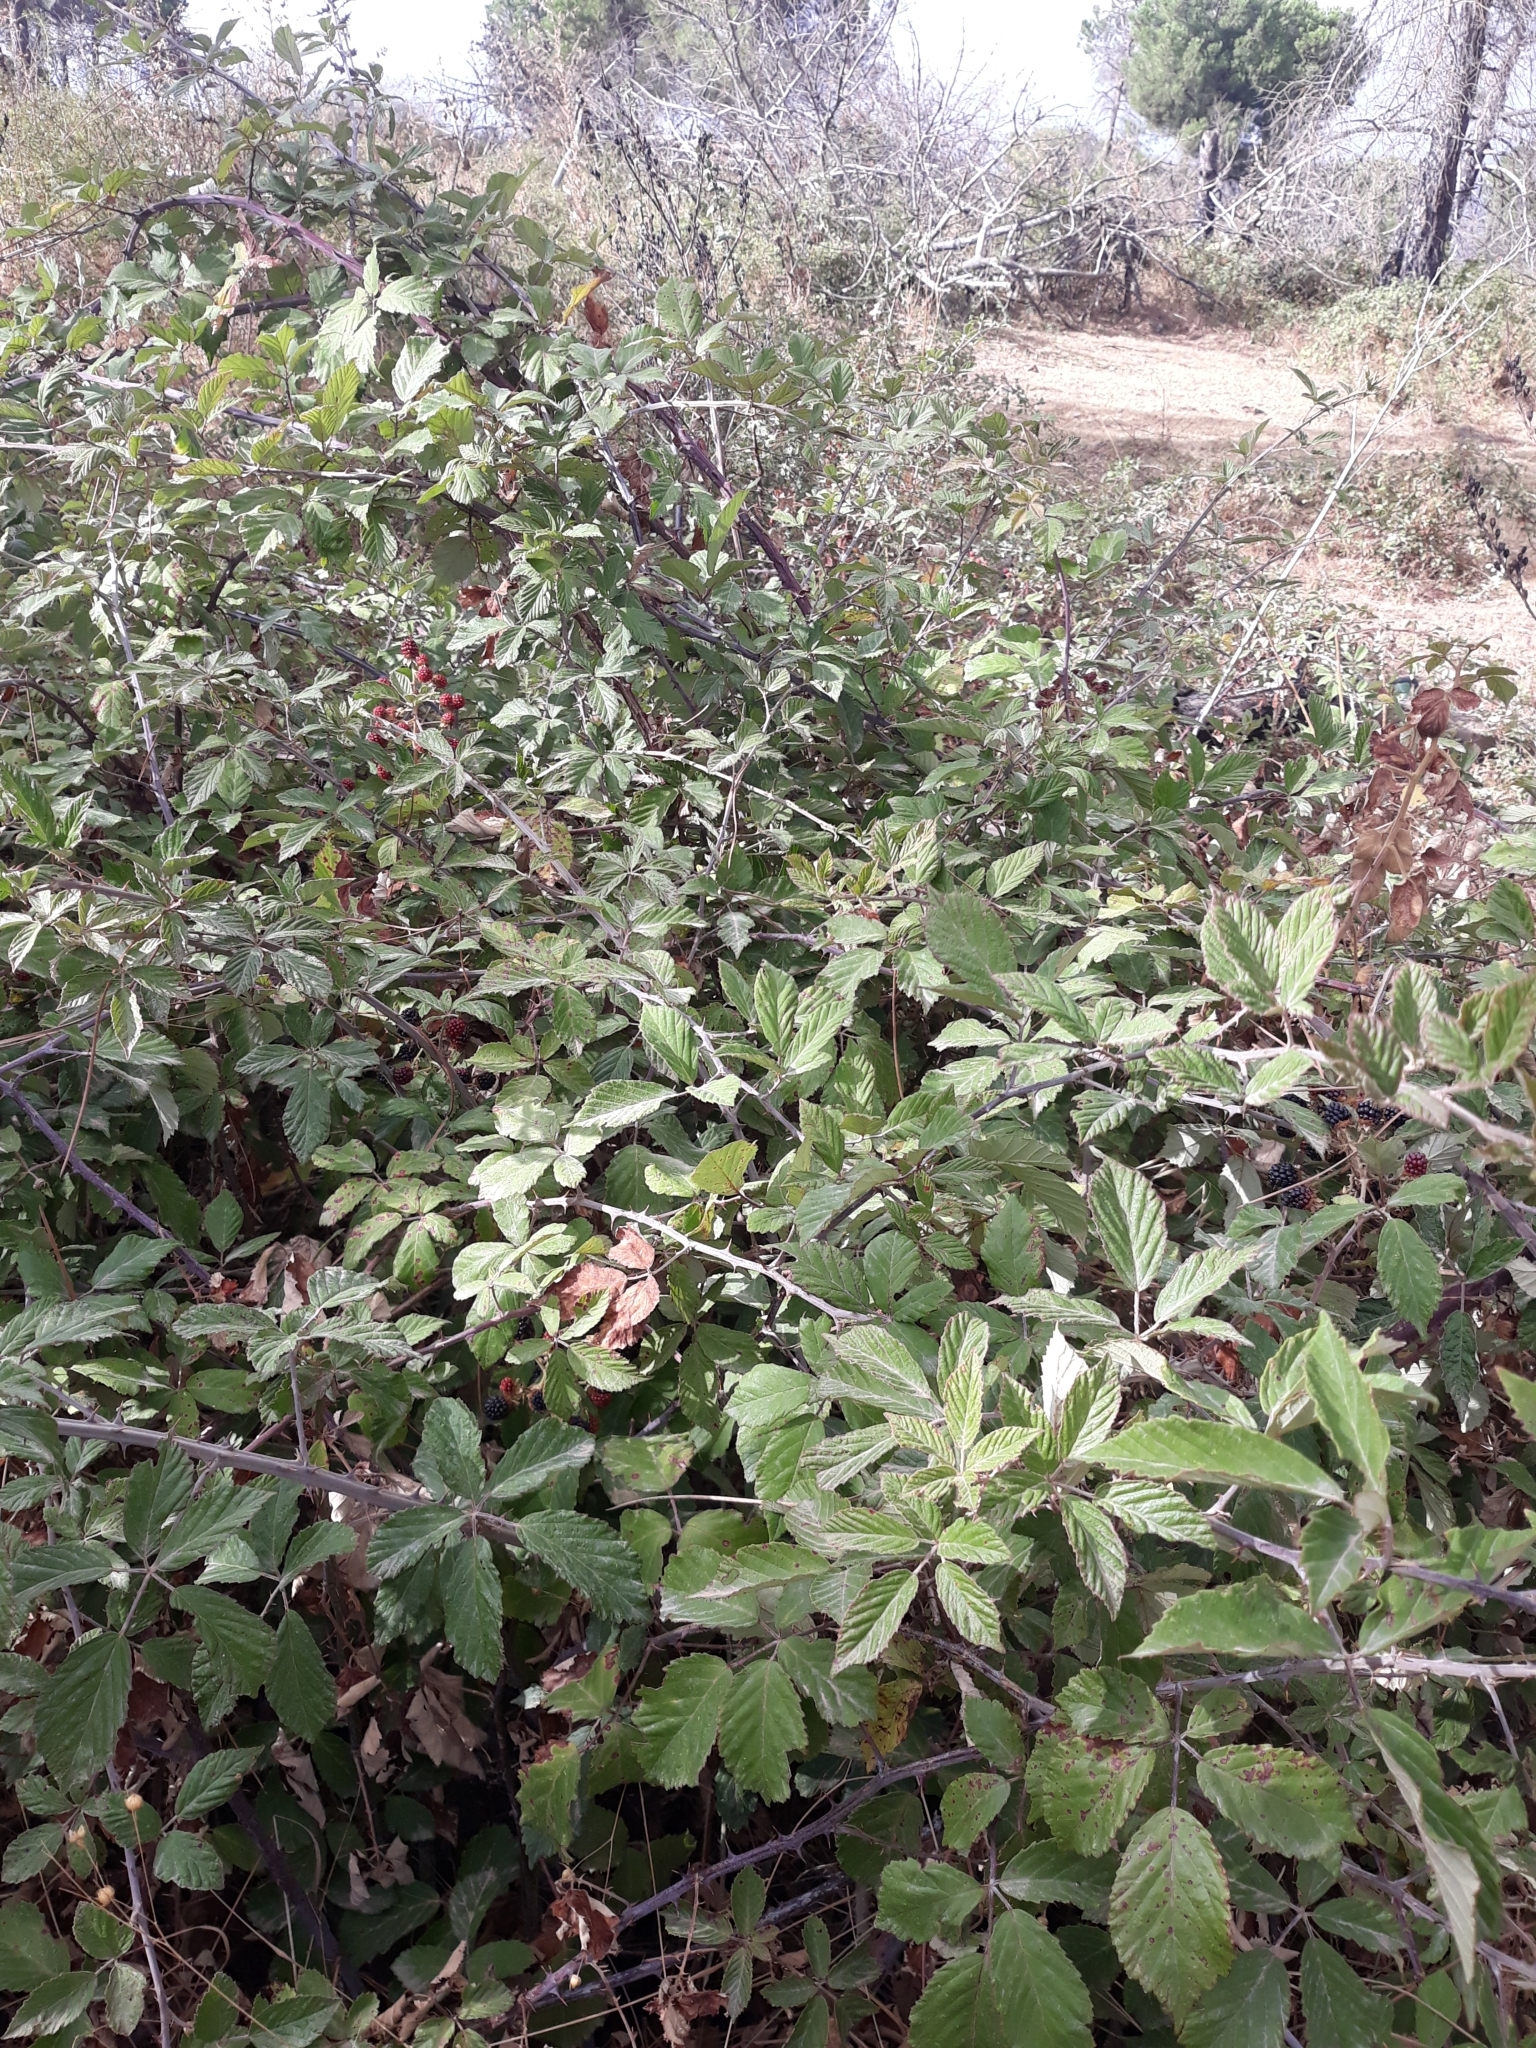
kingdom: Plantae
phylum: Tracheophyta
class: Magnoliopsida
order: Rosales
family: Rosaceae
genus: Rubus
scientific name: Rubus ulmifolius
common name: Elmleaf blackberry
